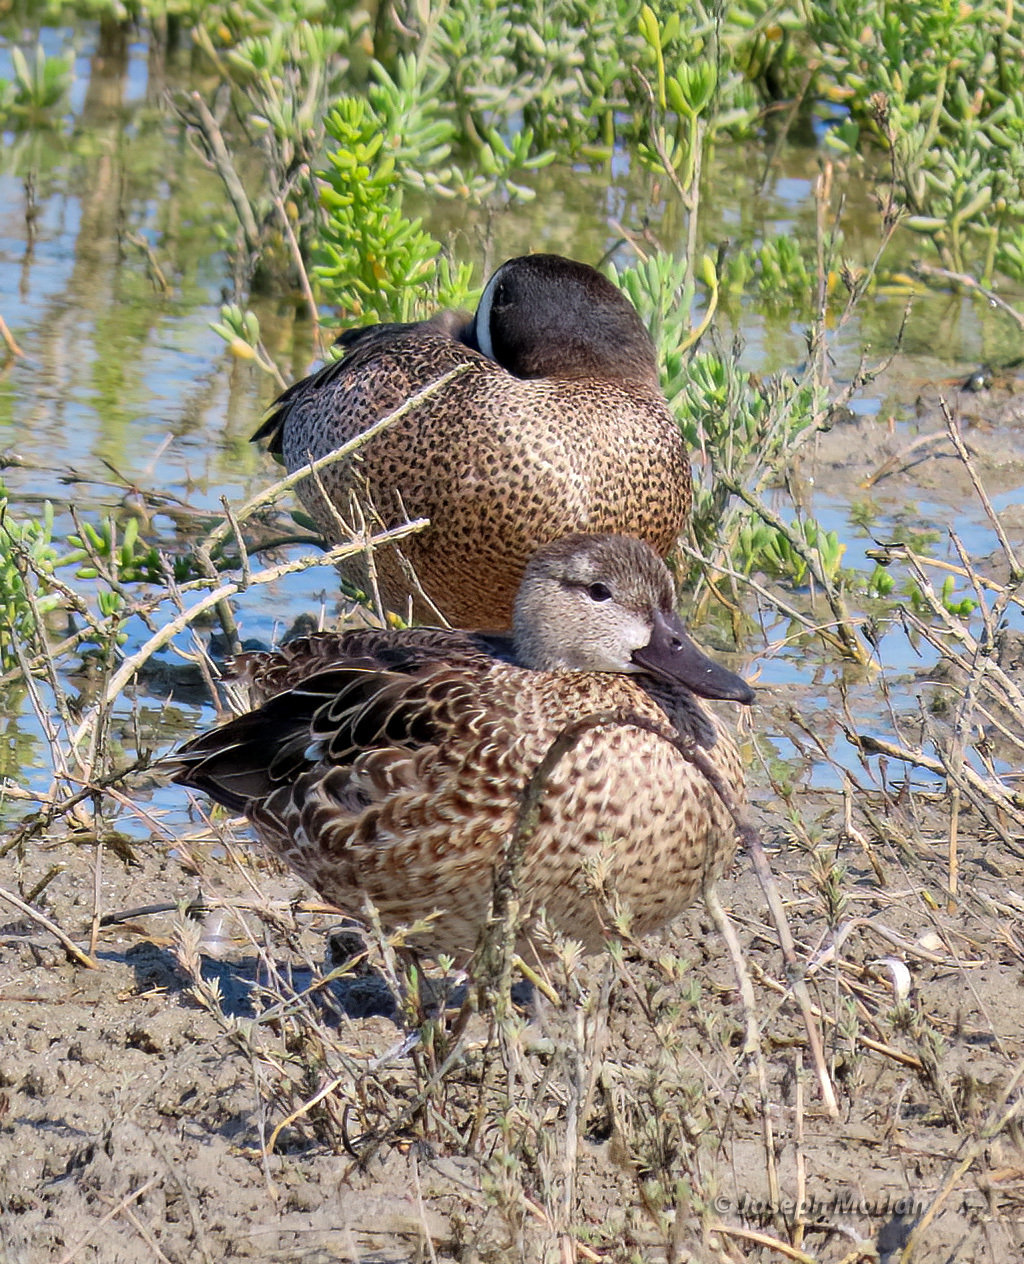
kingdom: Animalia
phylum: Chordata
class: Aves
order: Anseriformes
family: Anatidae
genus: Spatula
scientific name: Spatula discors
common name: Blue-winged teal
